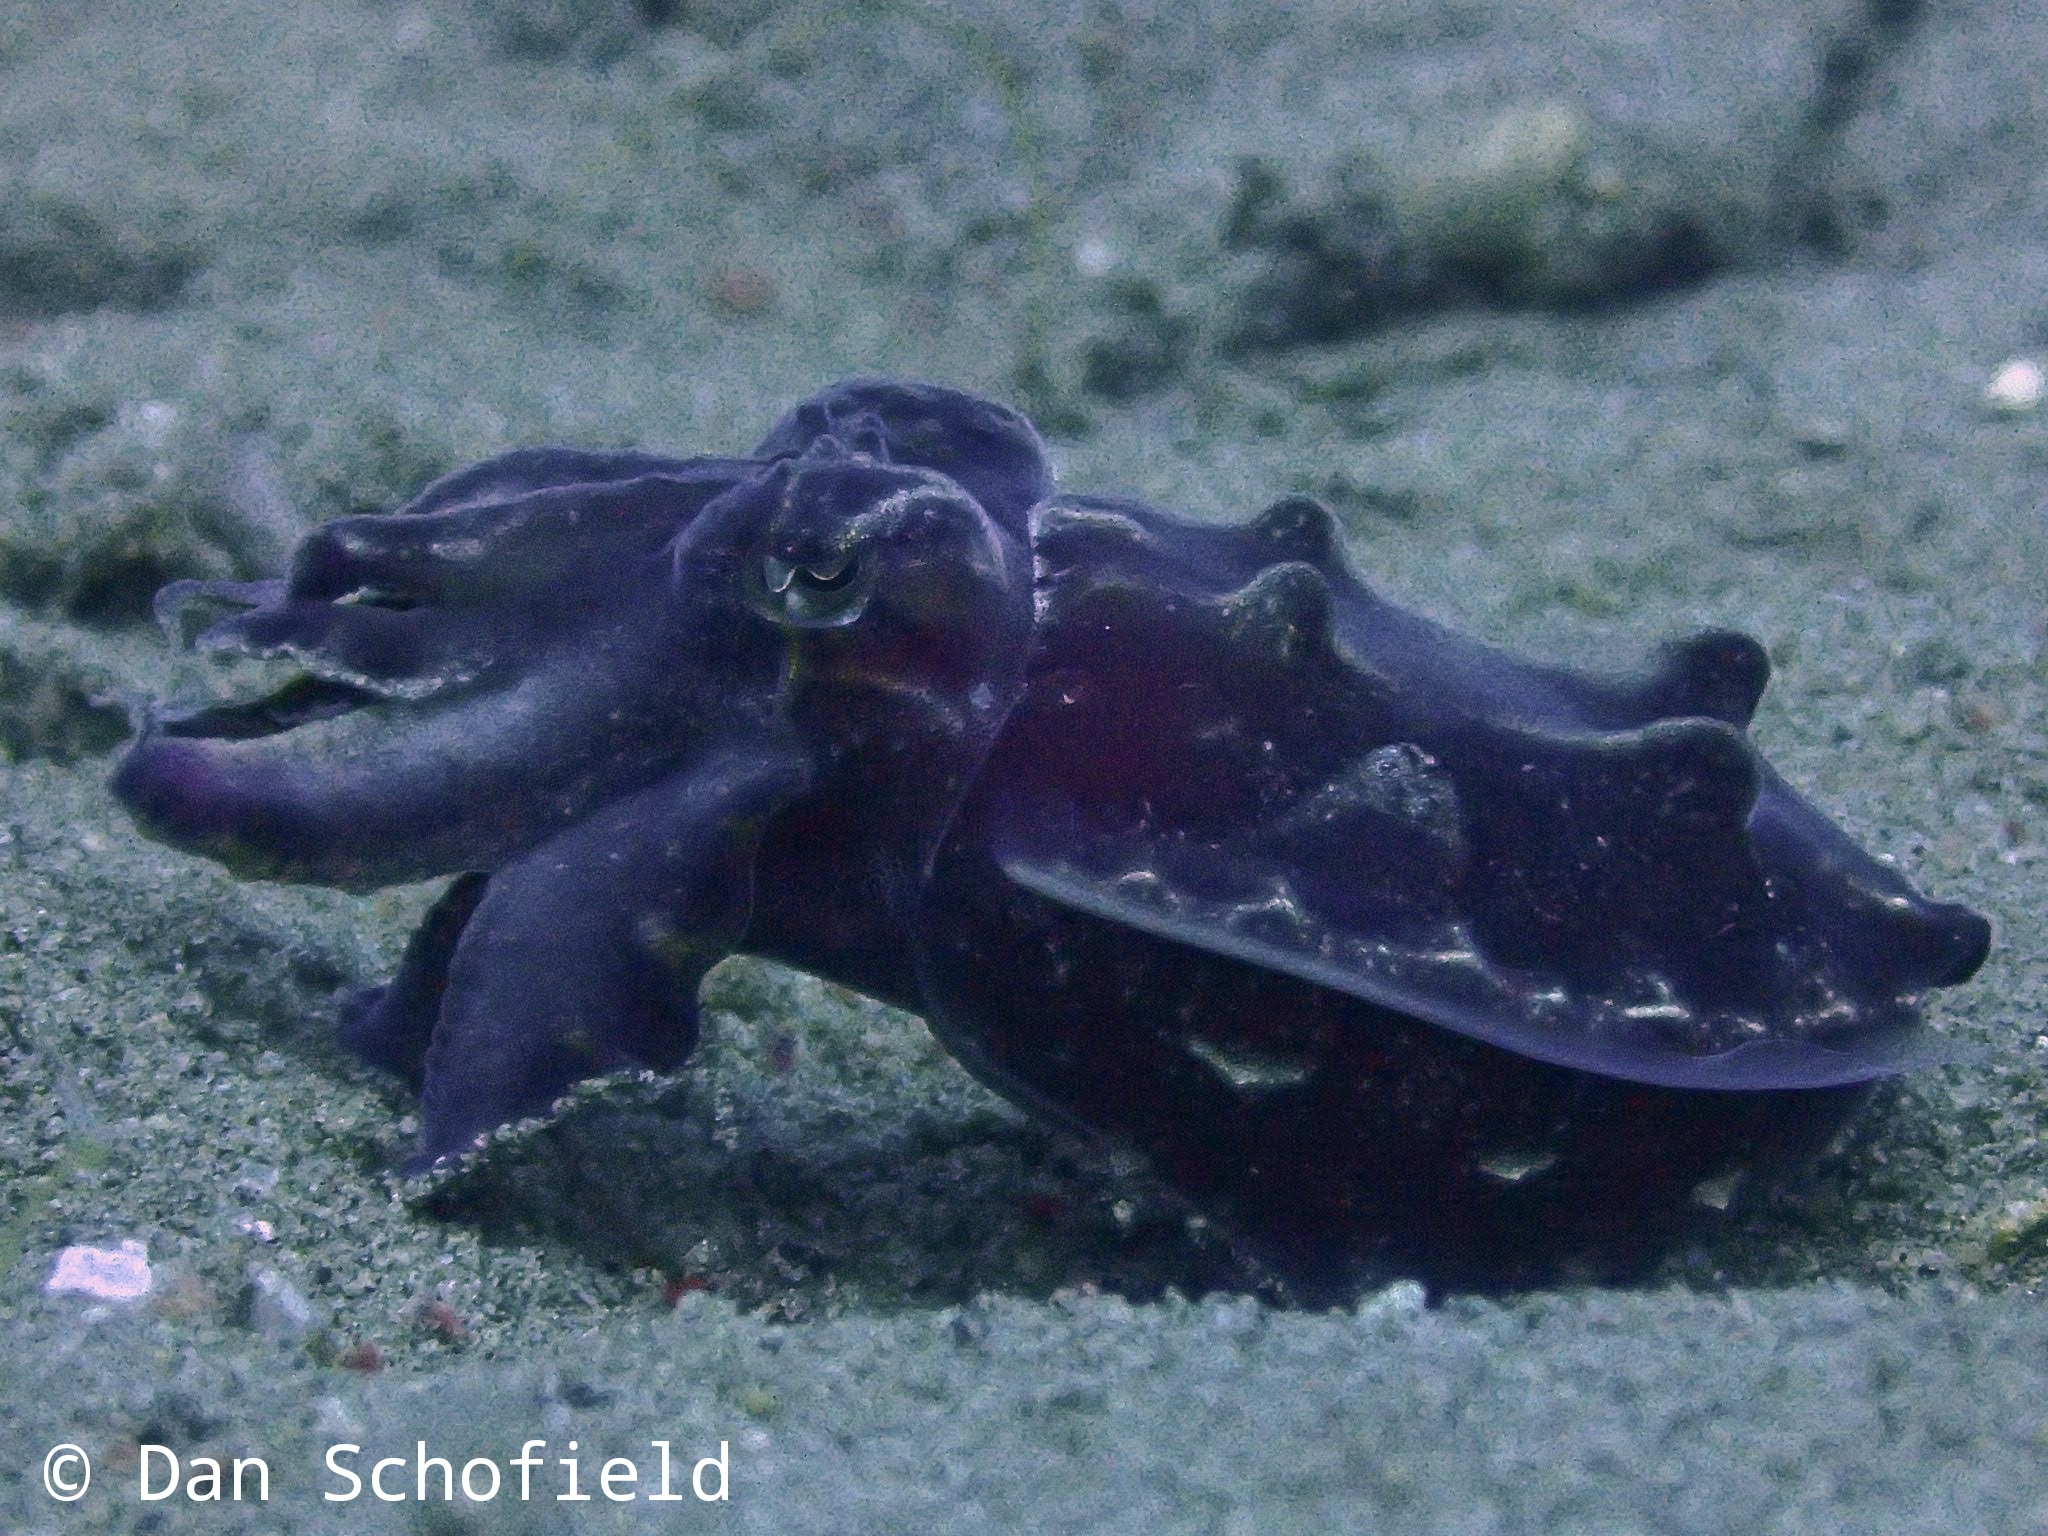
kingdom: Animalia
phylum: Mollusca
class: Cephalopoda
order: Sepiida
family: Sepiidae
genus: Ascarosepion
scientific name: Ascarosepion pfefferi
